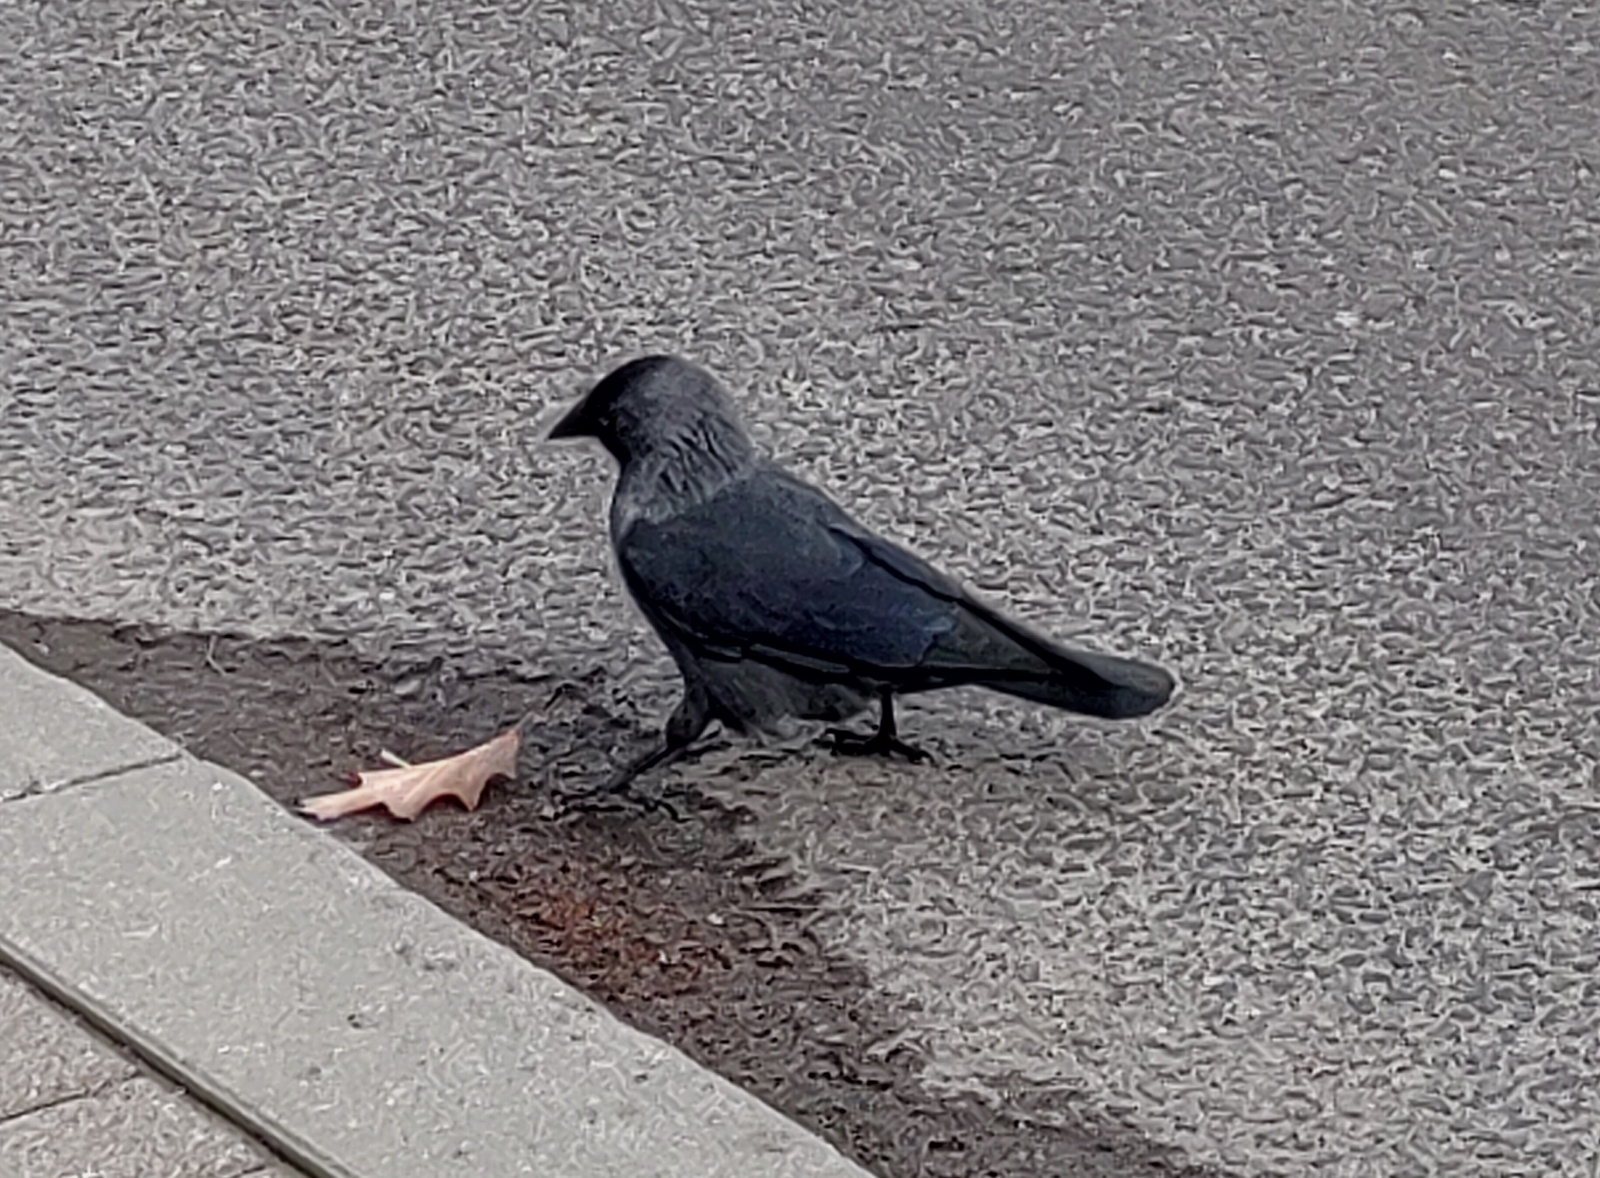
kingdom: Animalia
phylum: Chordata
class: Aves
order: Passeriformes
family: Corvidae
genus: Coloeus
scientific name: Coloeus monedula
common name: Western jackdaw
